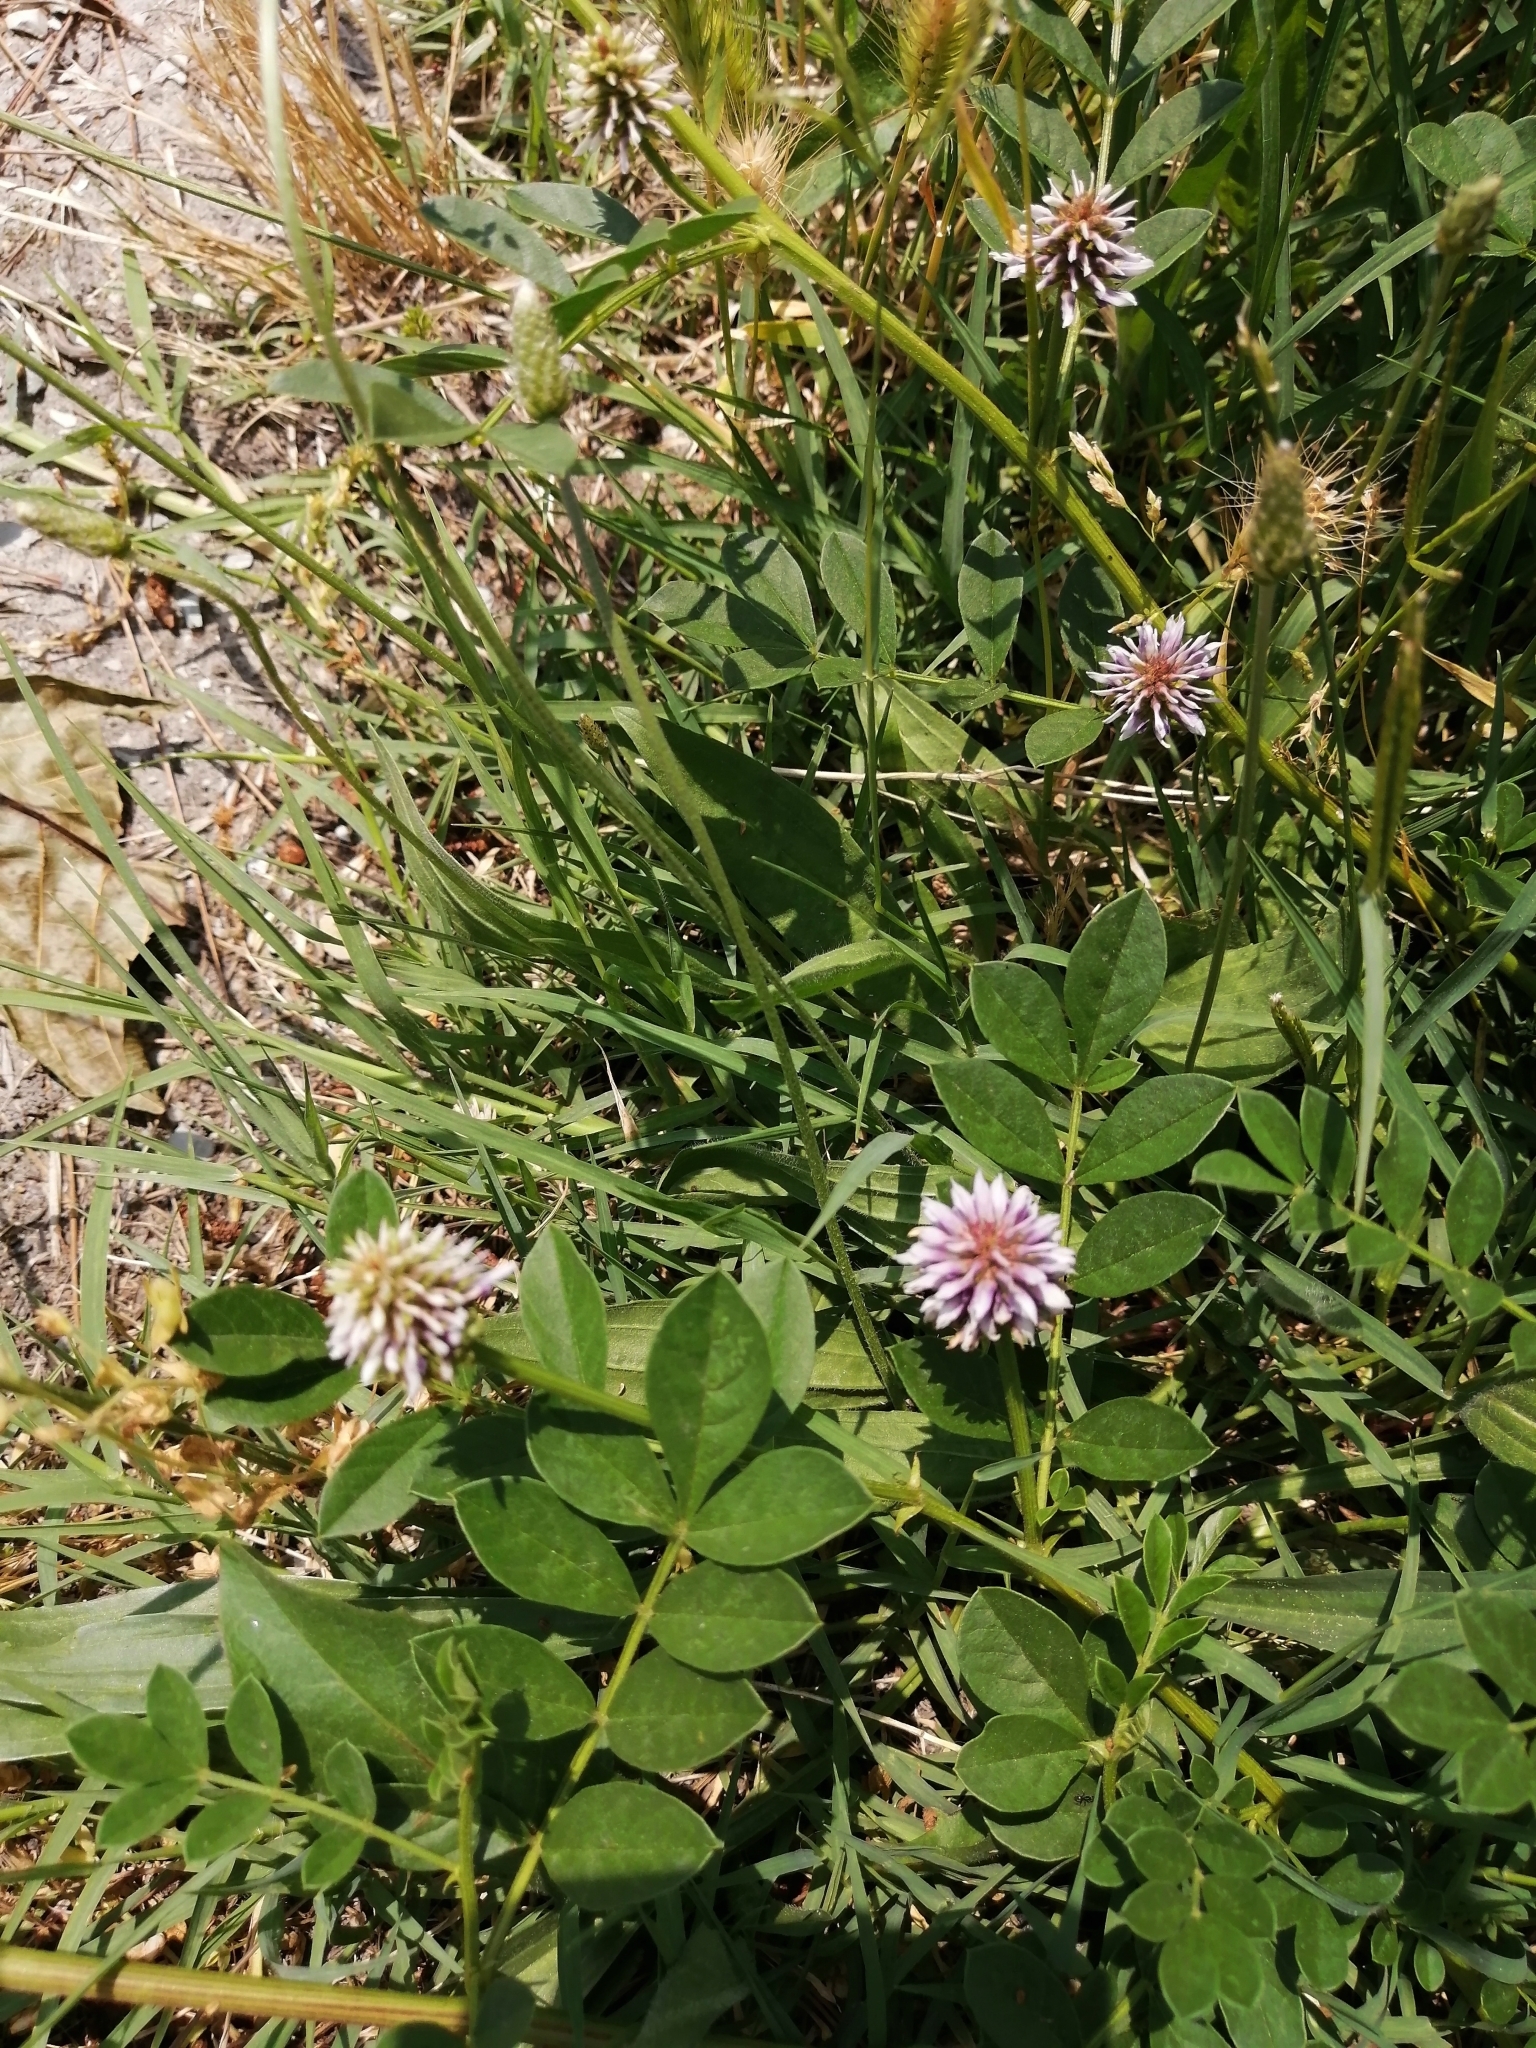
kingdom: Plantae
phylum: Tracheophyta
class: Magnoliopsida
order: Fabales
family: Fabaceae
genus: Glycyrrhiza
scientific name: Glycyrrhiza echinata
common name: German liquorice
